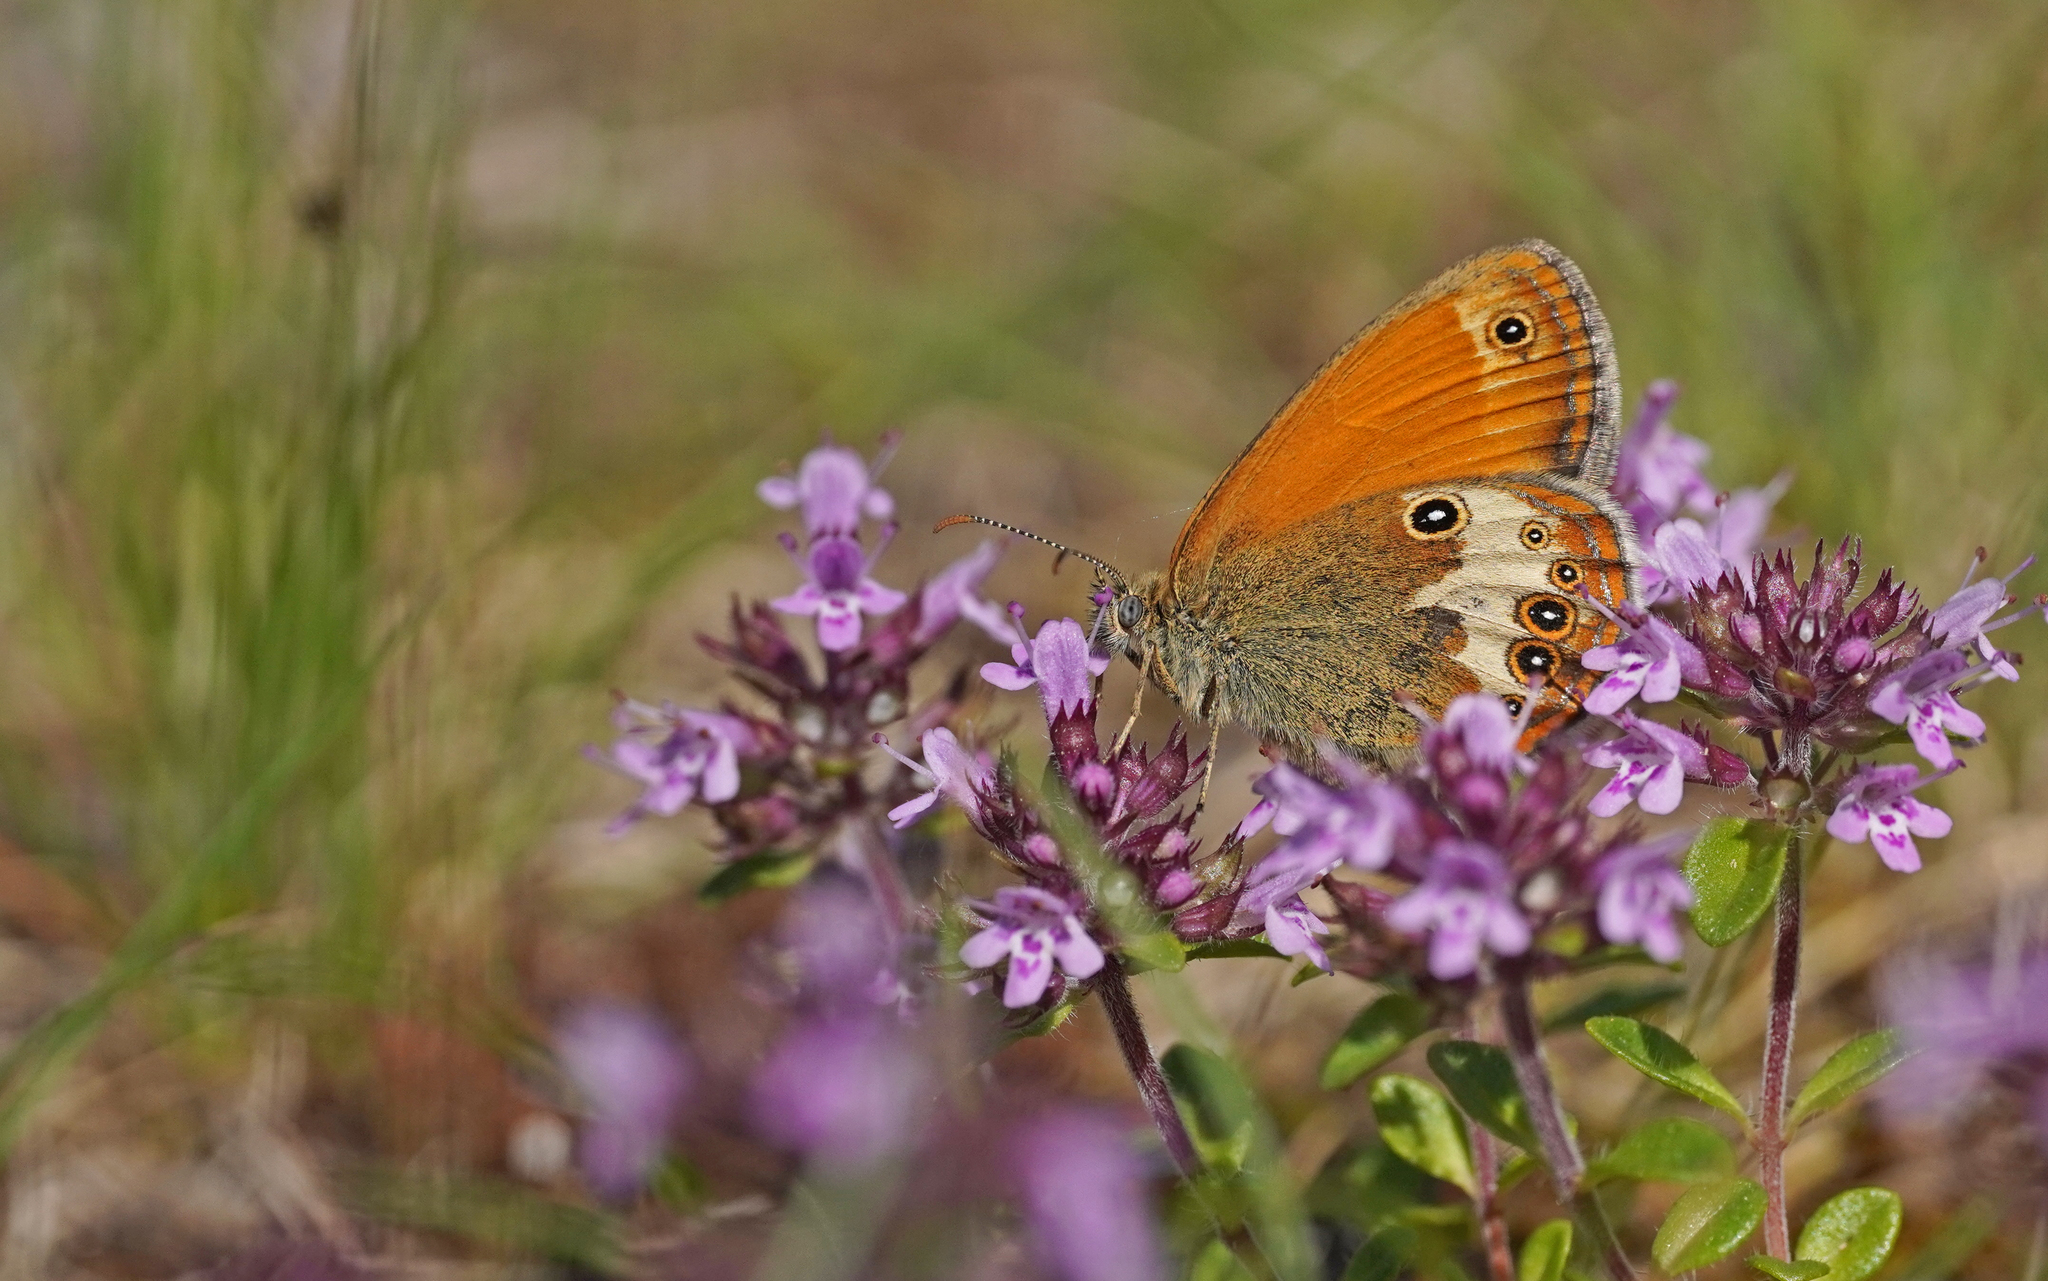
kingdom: Animalia
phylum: Arthropoda
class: Insecta
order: Lepidoptera
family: Nymphalidae
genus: Coenonympha
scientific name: Coenonympha arcania
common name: Pearly heath
